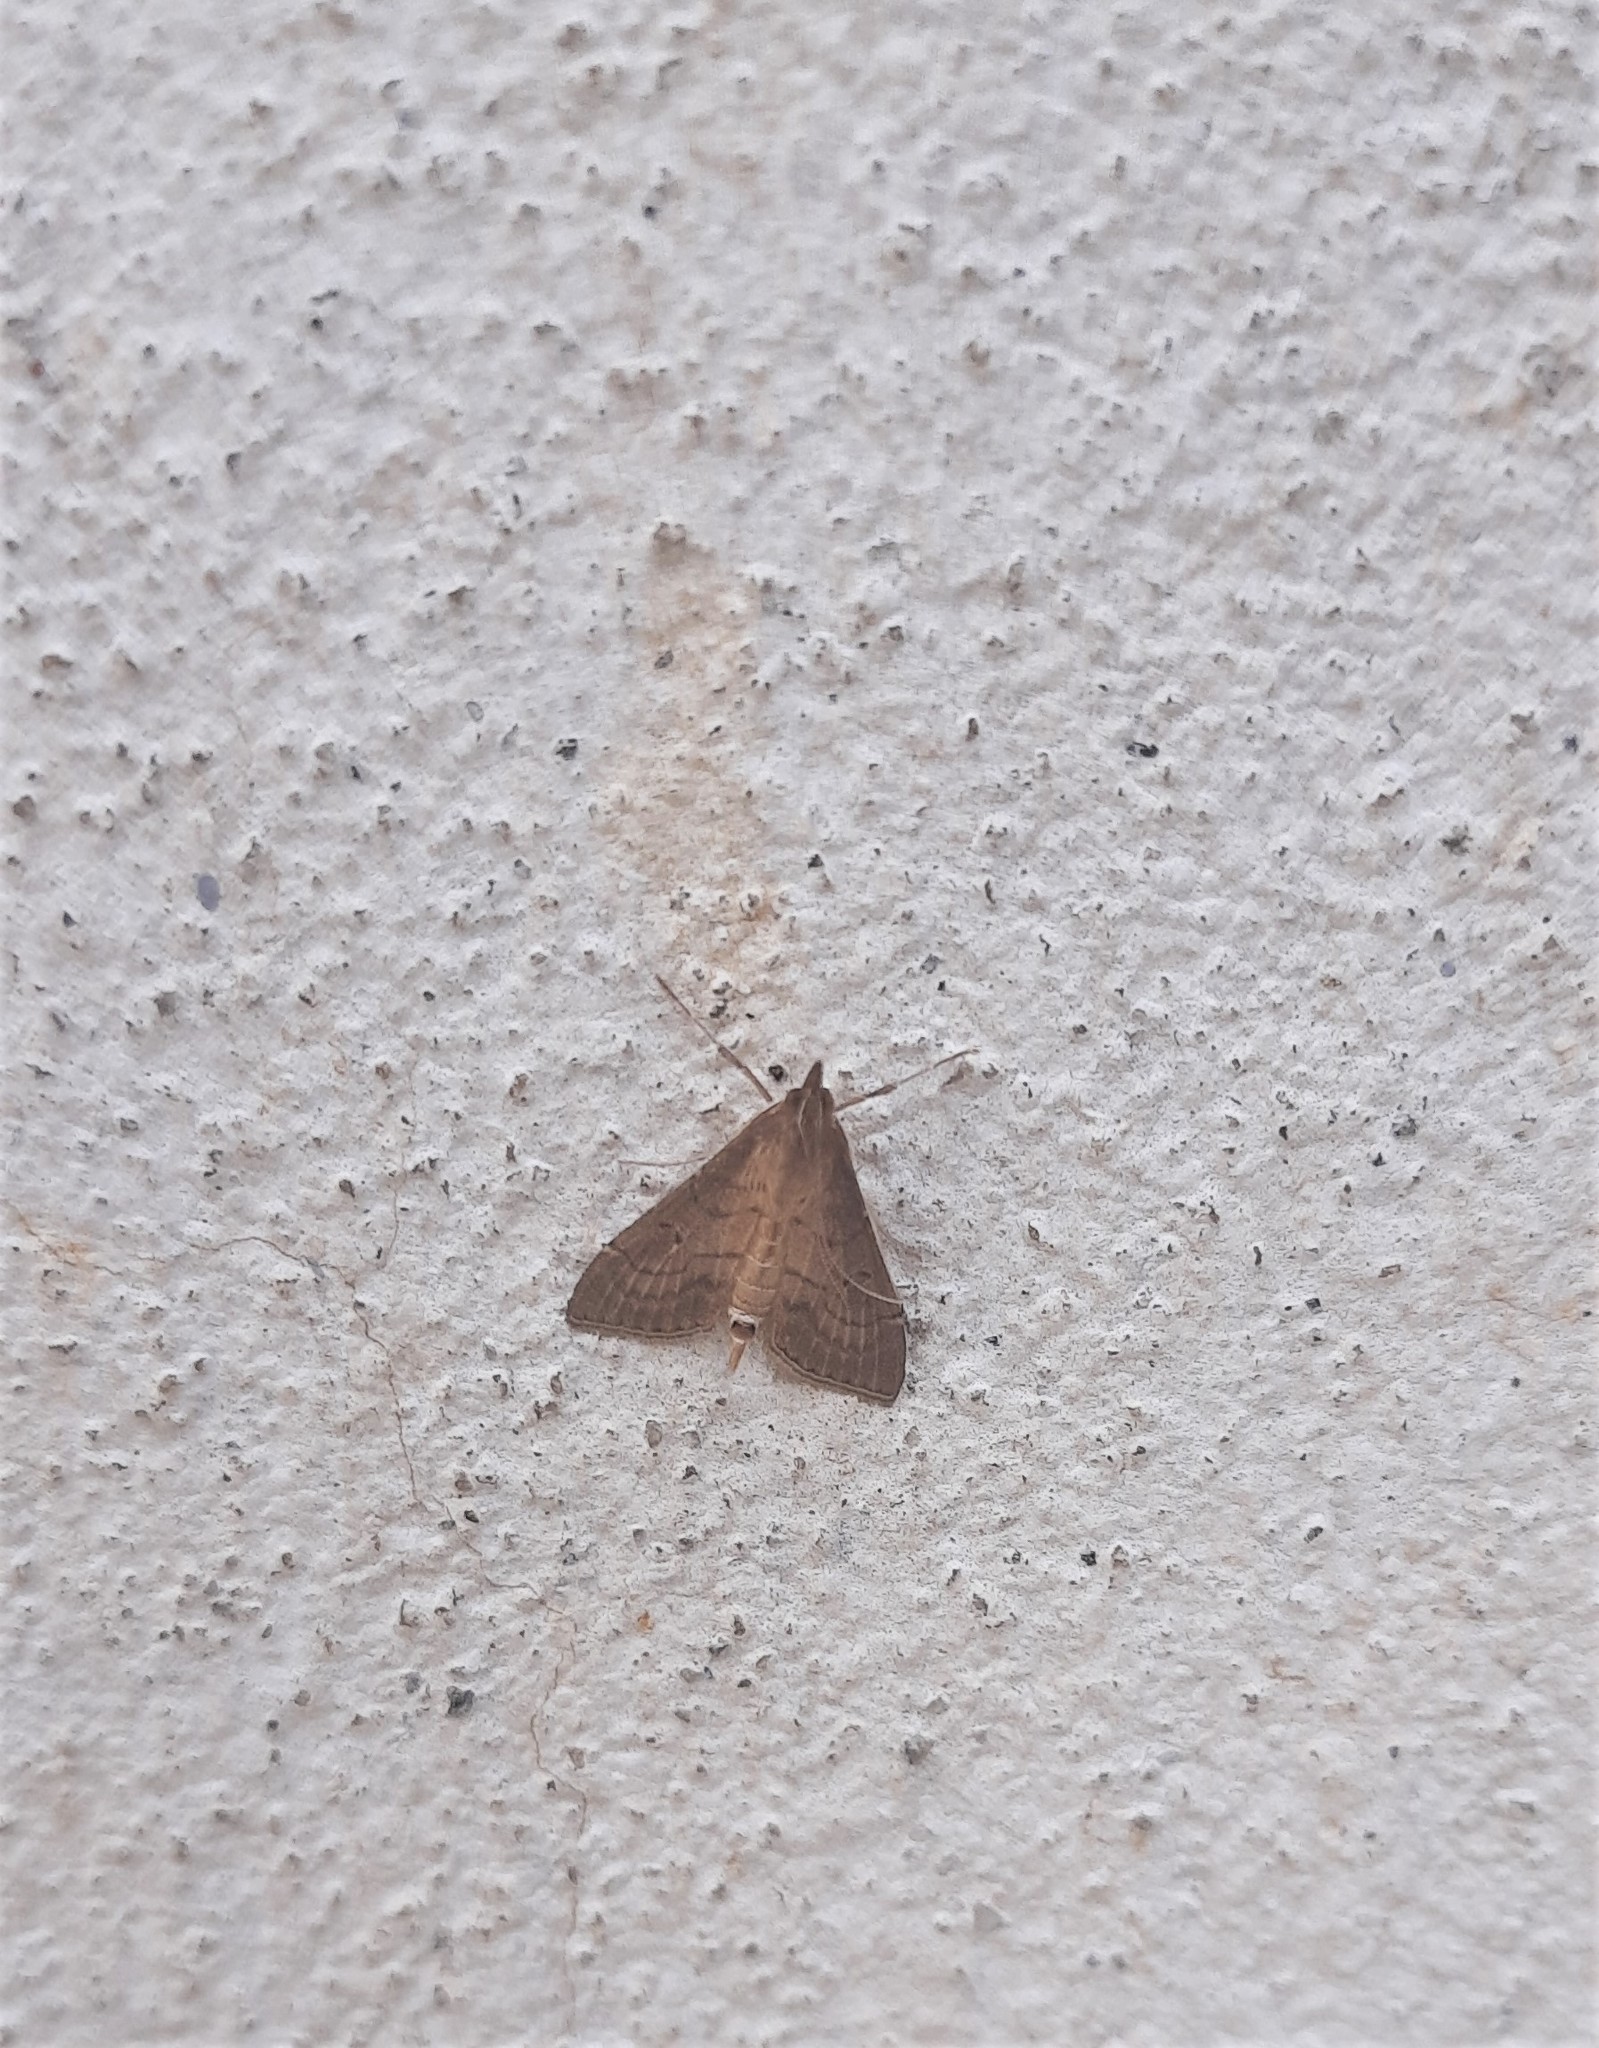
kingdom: Animalia
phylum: Arthropoda
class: Insecta
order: Lepidoptera
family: Crambidae
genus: Cnaphalocrocis
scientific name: Cnaphalocrocis Marasmia trapezalis
